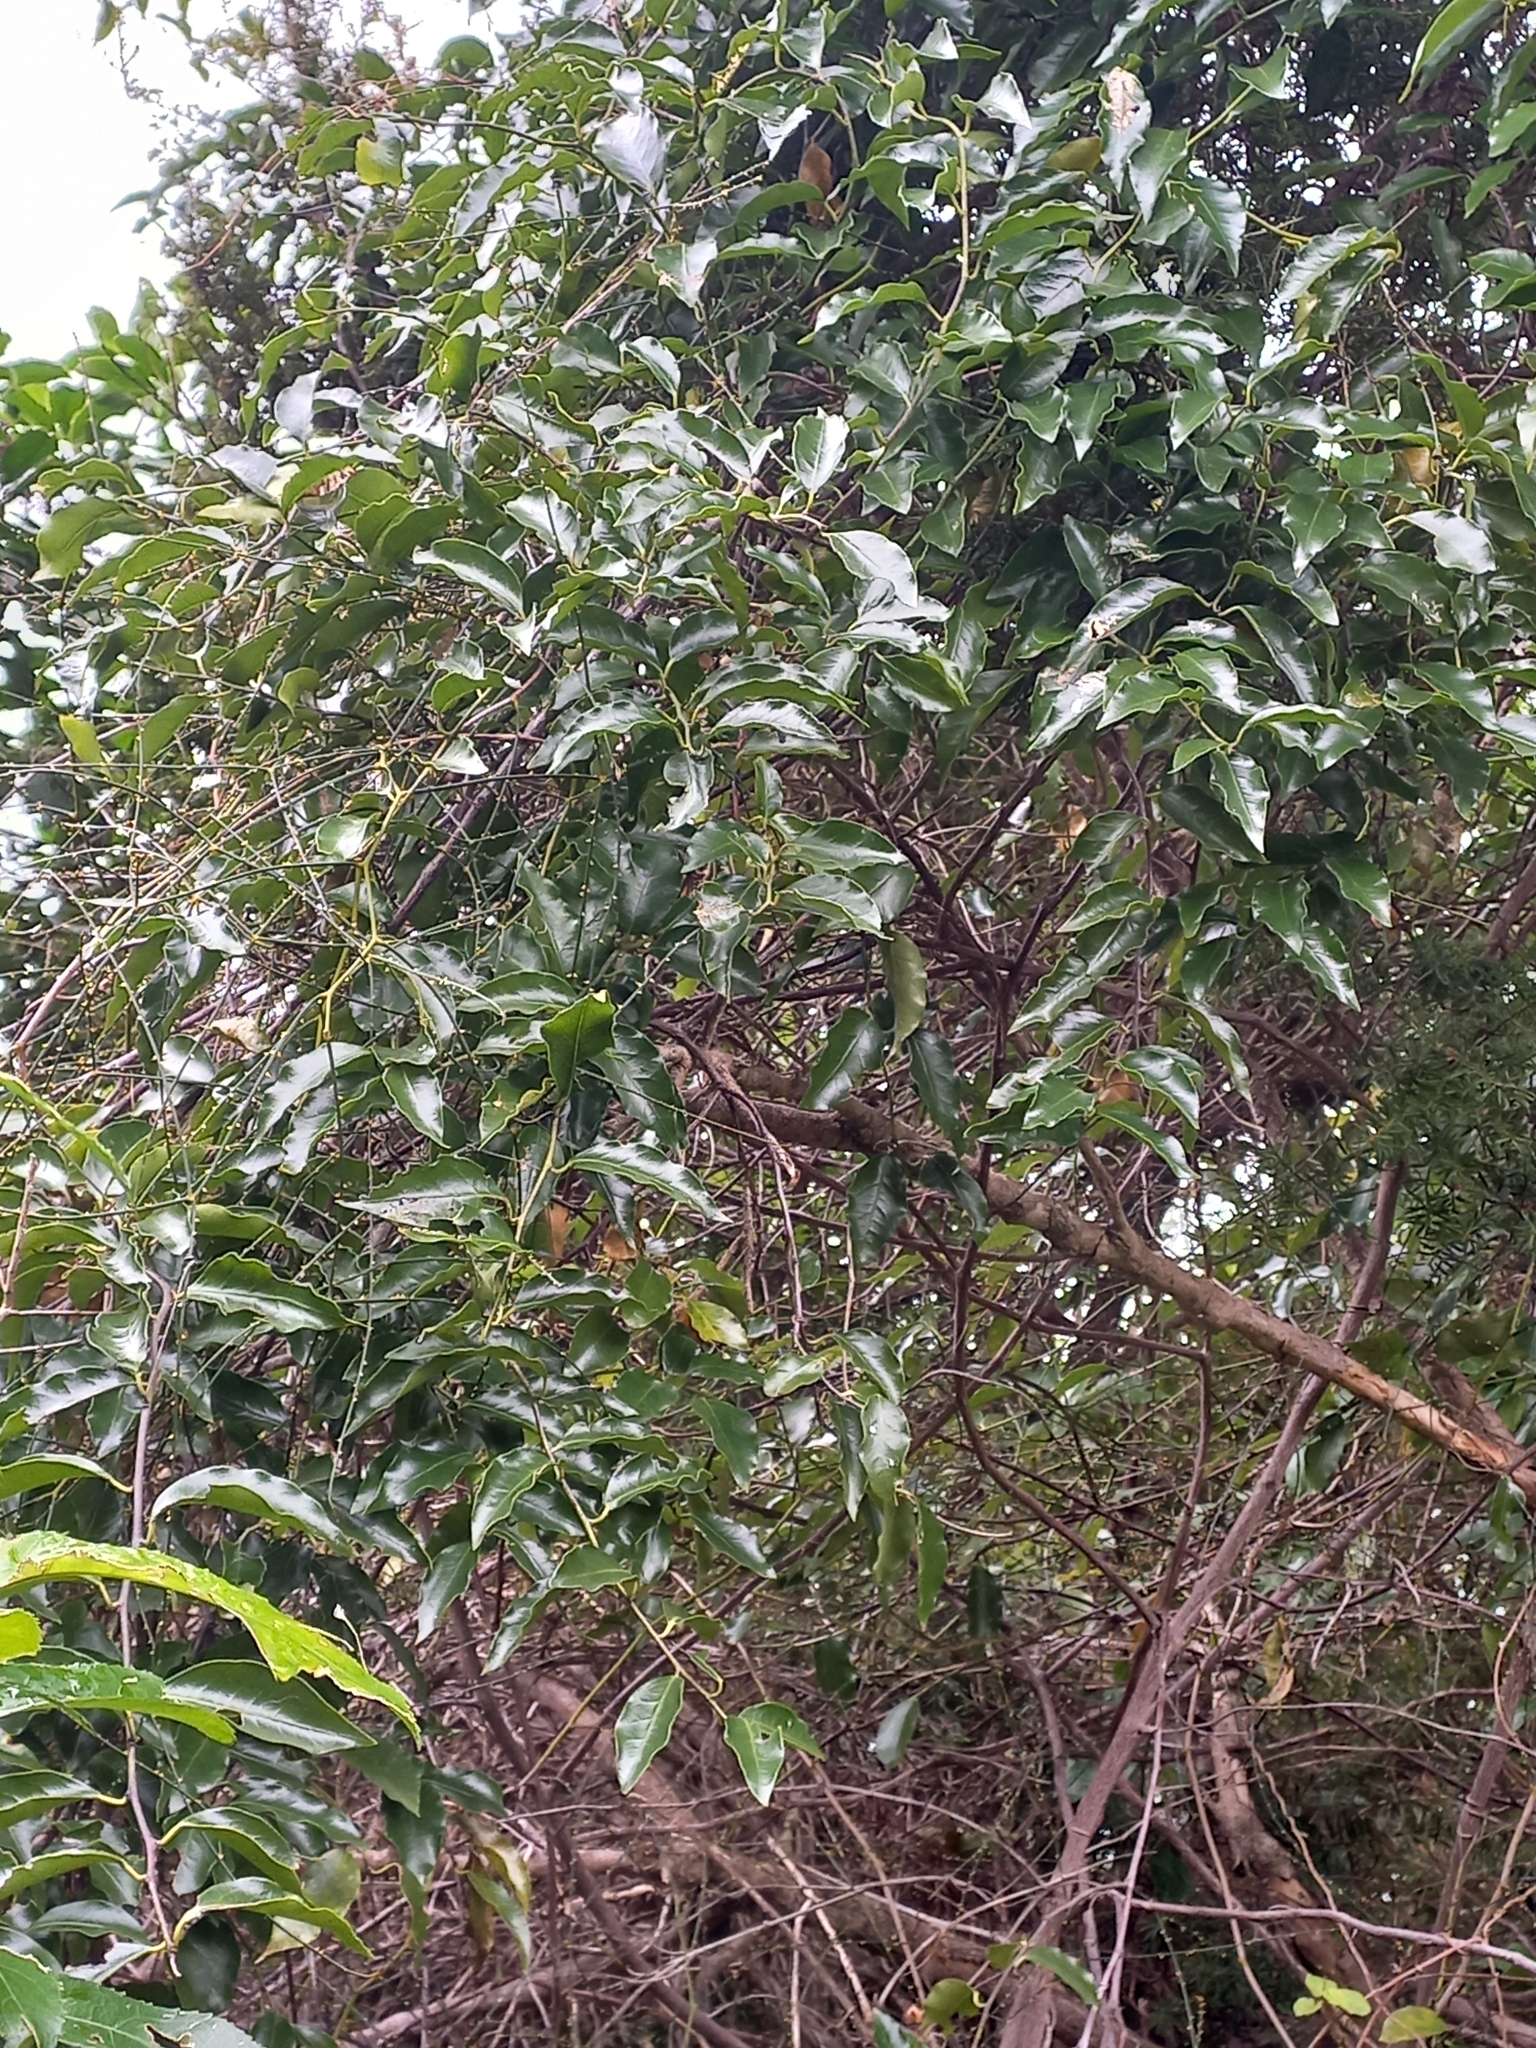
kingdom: Plantae
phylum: Tracheophyta
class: Magnoliopsida
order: Malpighiales
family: Passifloraceae
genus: Passiflora
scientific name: Passiflora tetrandra
